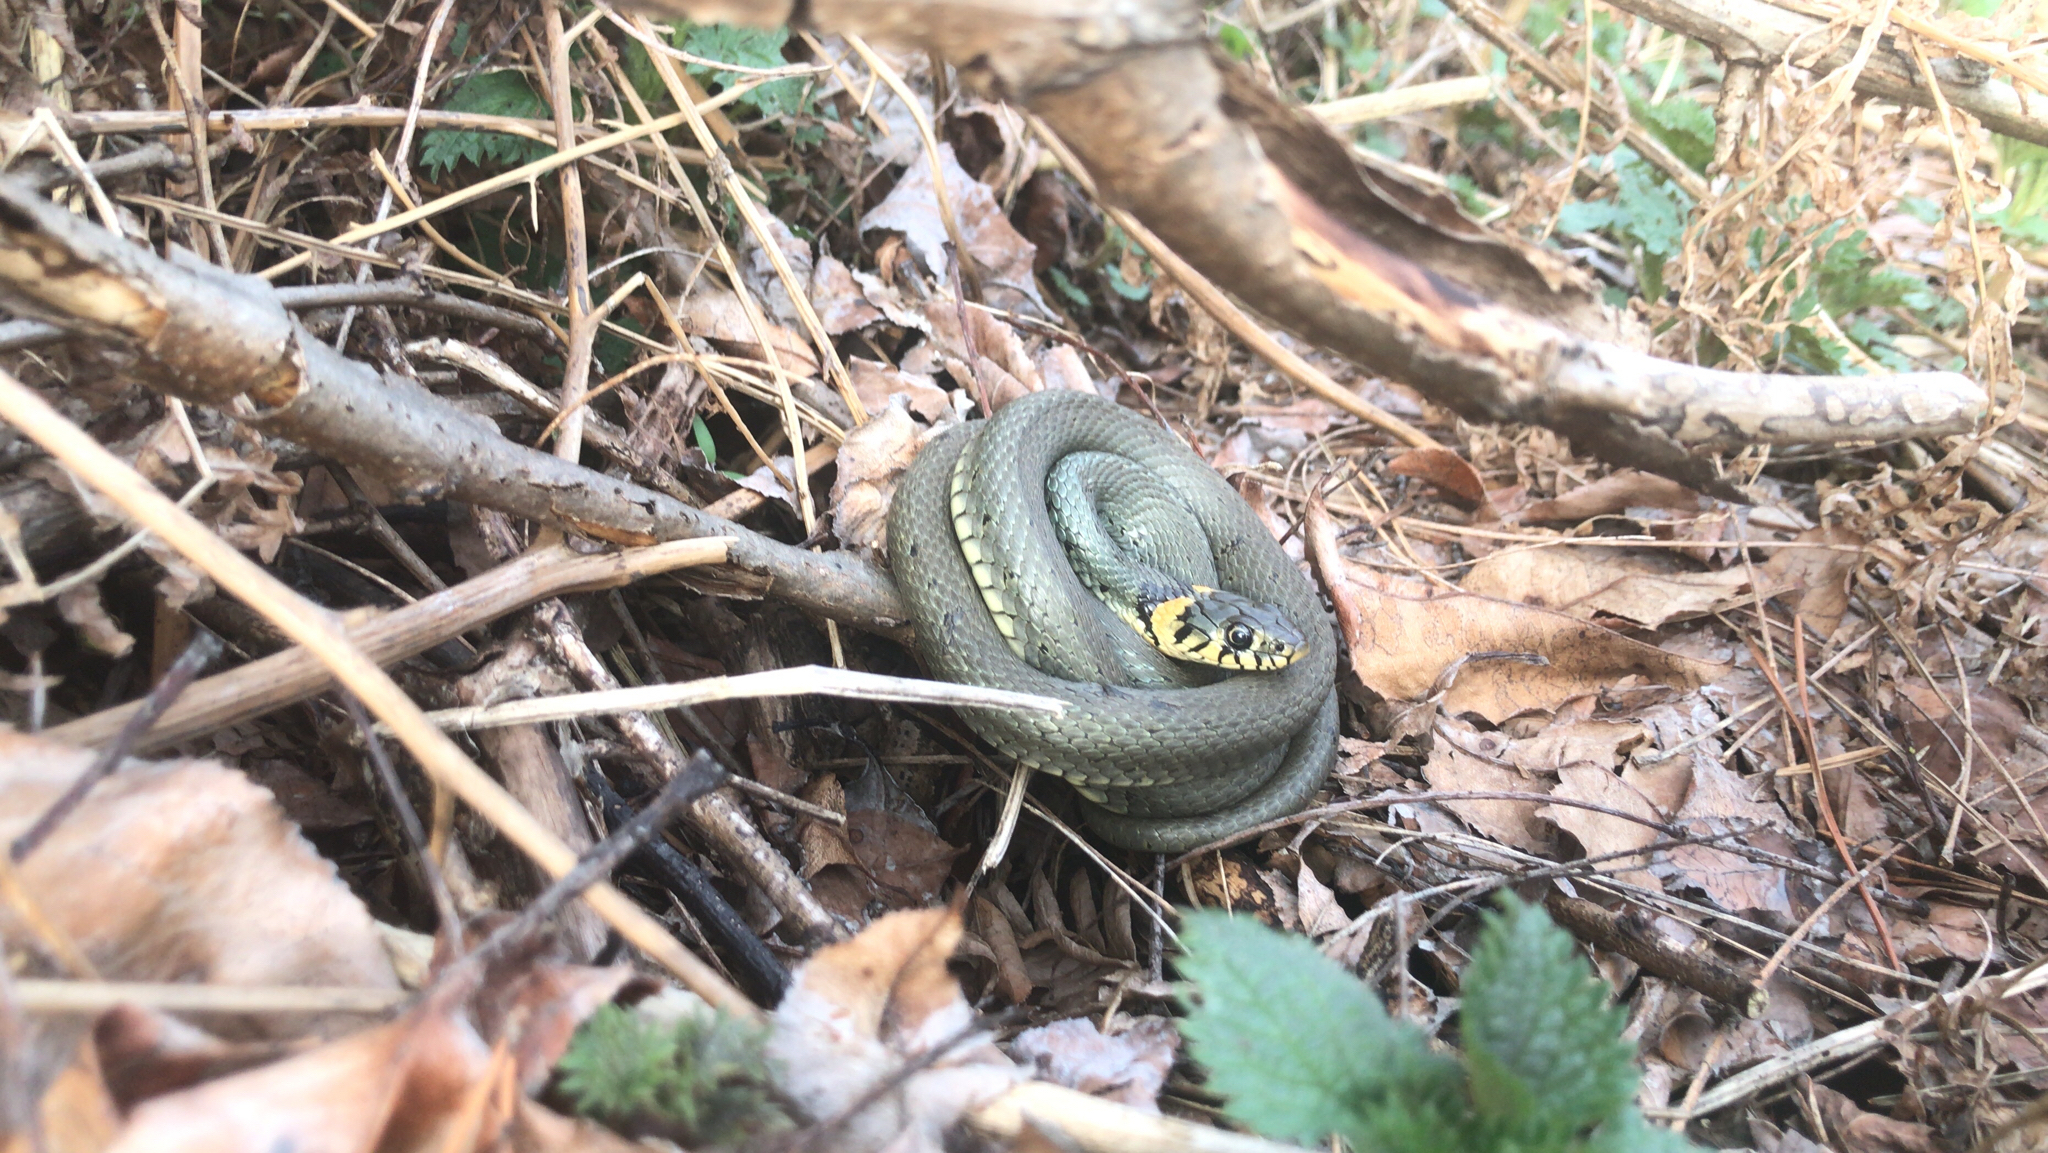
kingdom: Animalia
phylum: Chordata
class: Squamata
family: Colubridae
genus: Natrix
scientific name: Natrix natrix
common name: Grass snake
